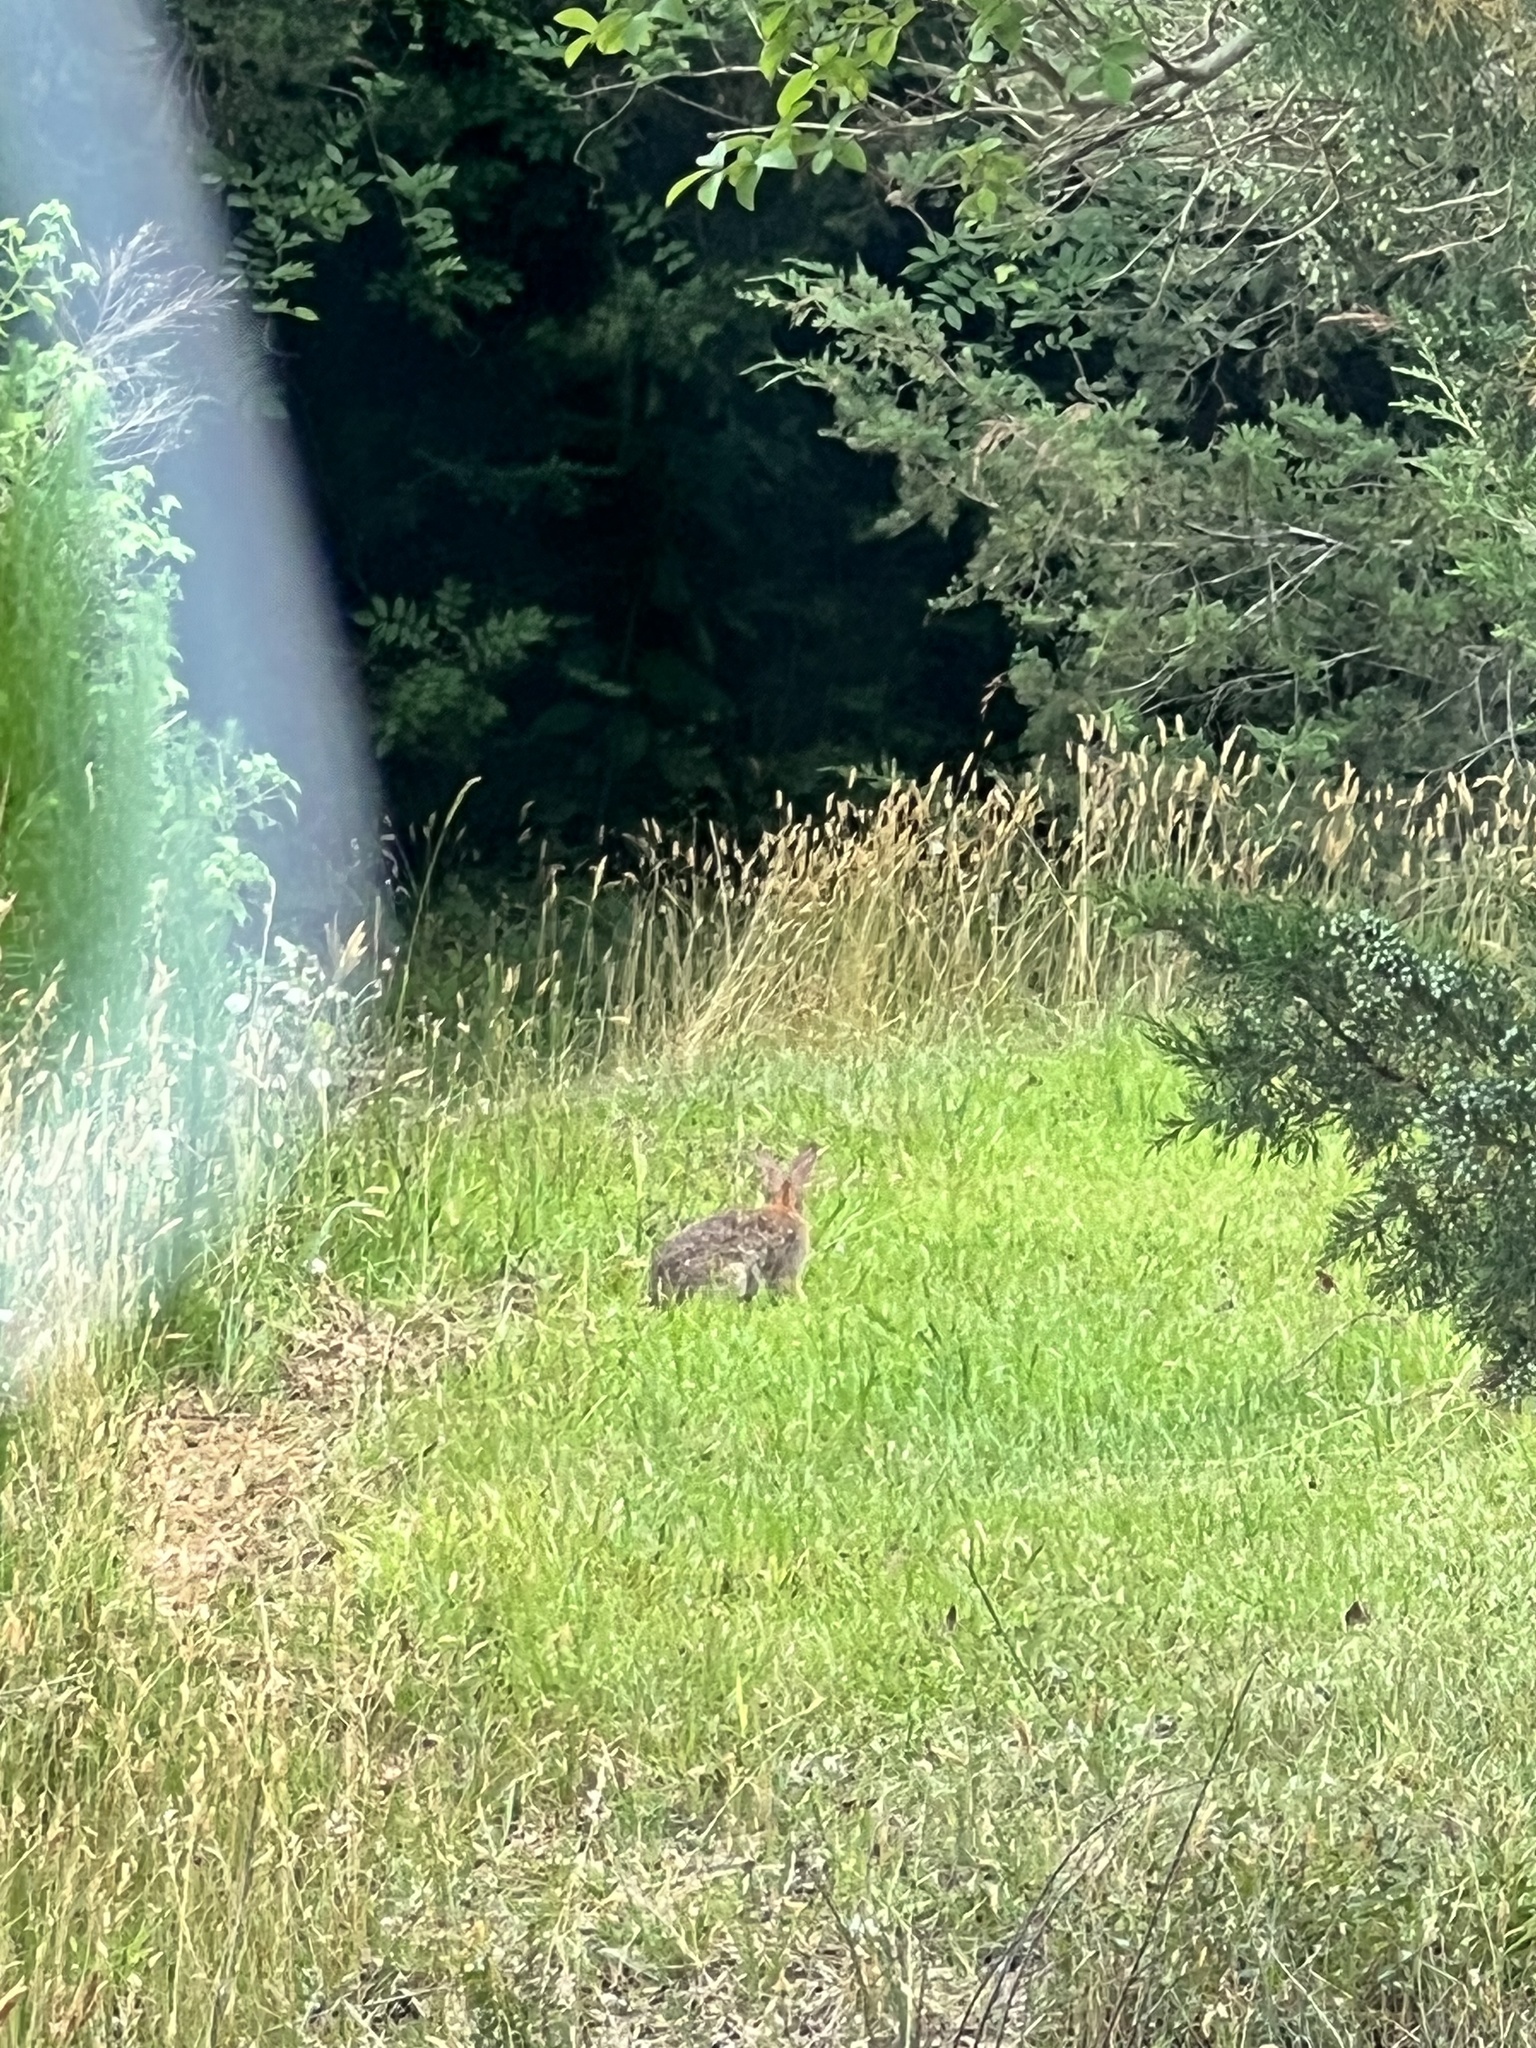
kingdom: Animalia
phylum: Chordata
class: Mammalia
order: Lagomorpha
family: Leporidae
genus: Sylvilagus
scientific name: Sylvilagus floridanus
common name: Eastern cottontail
